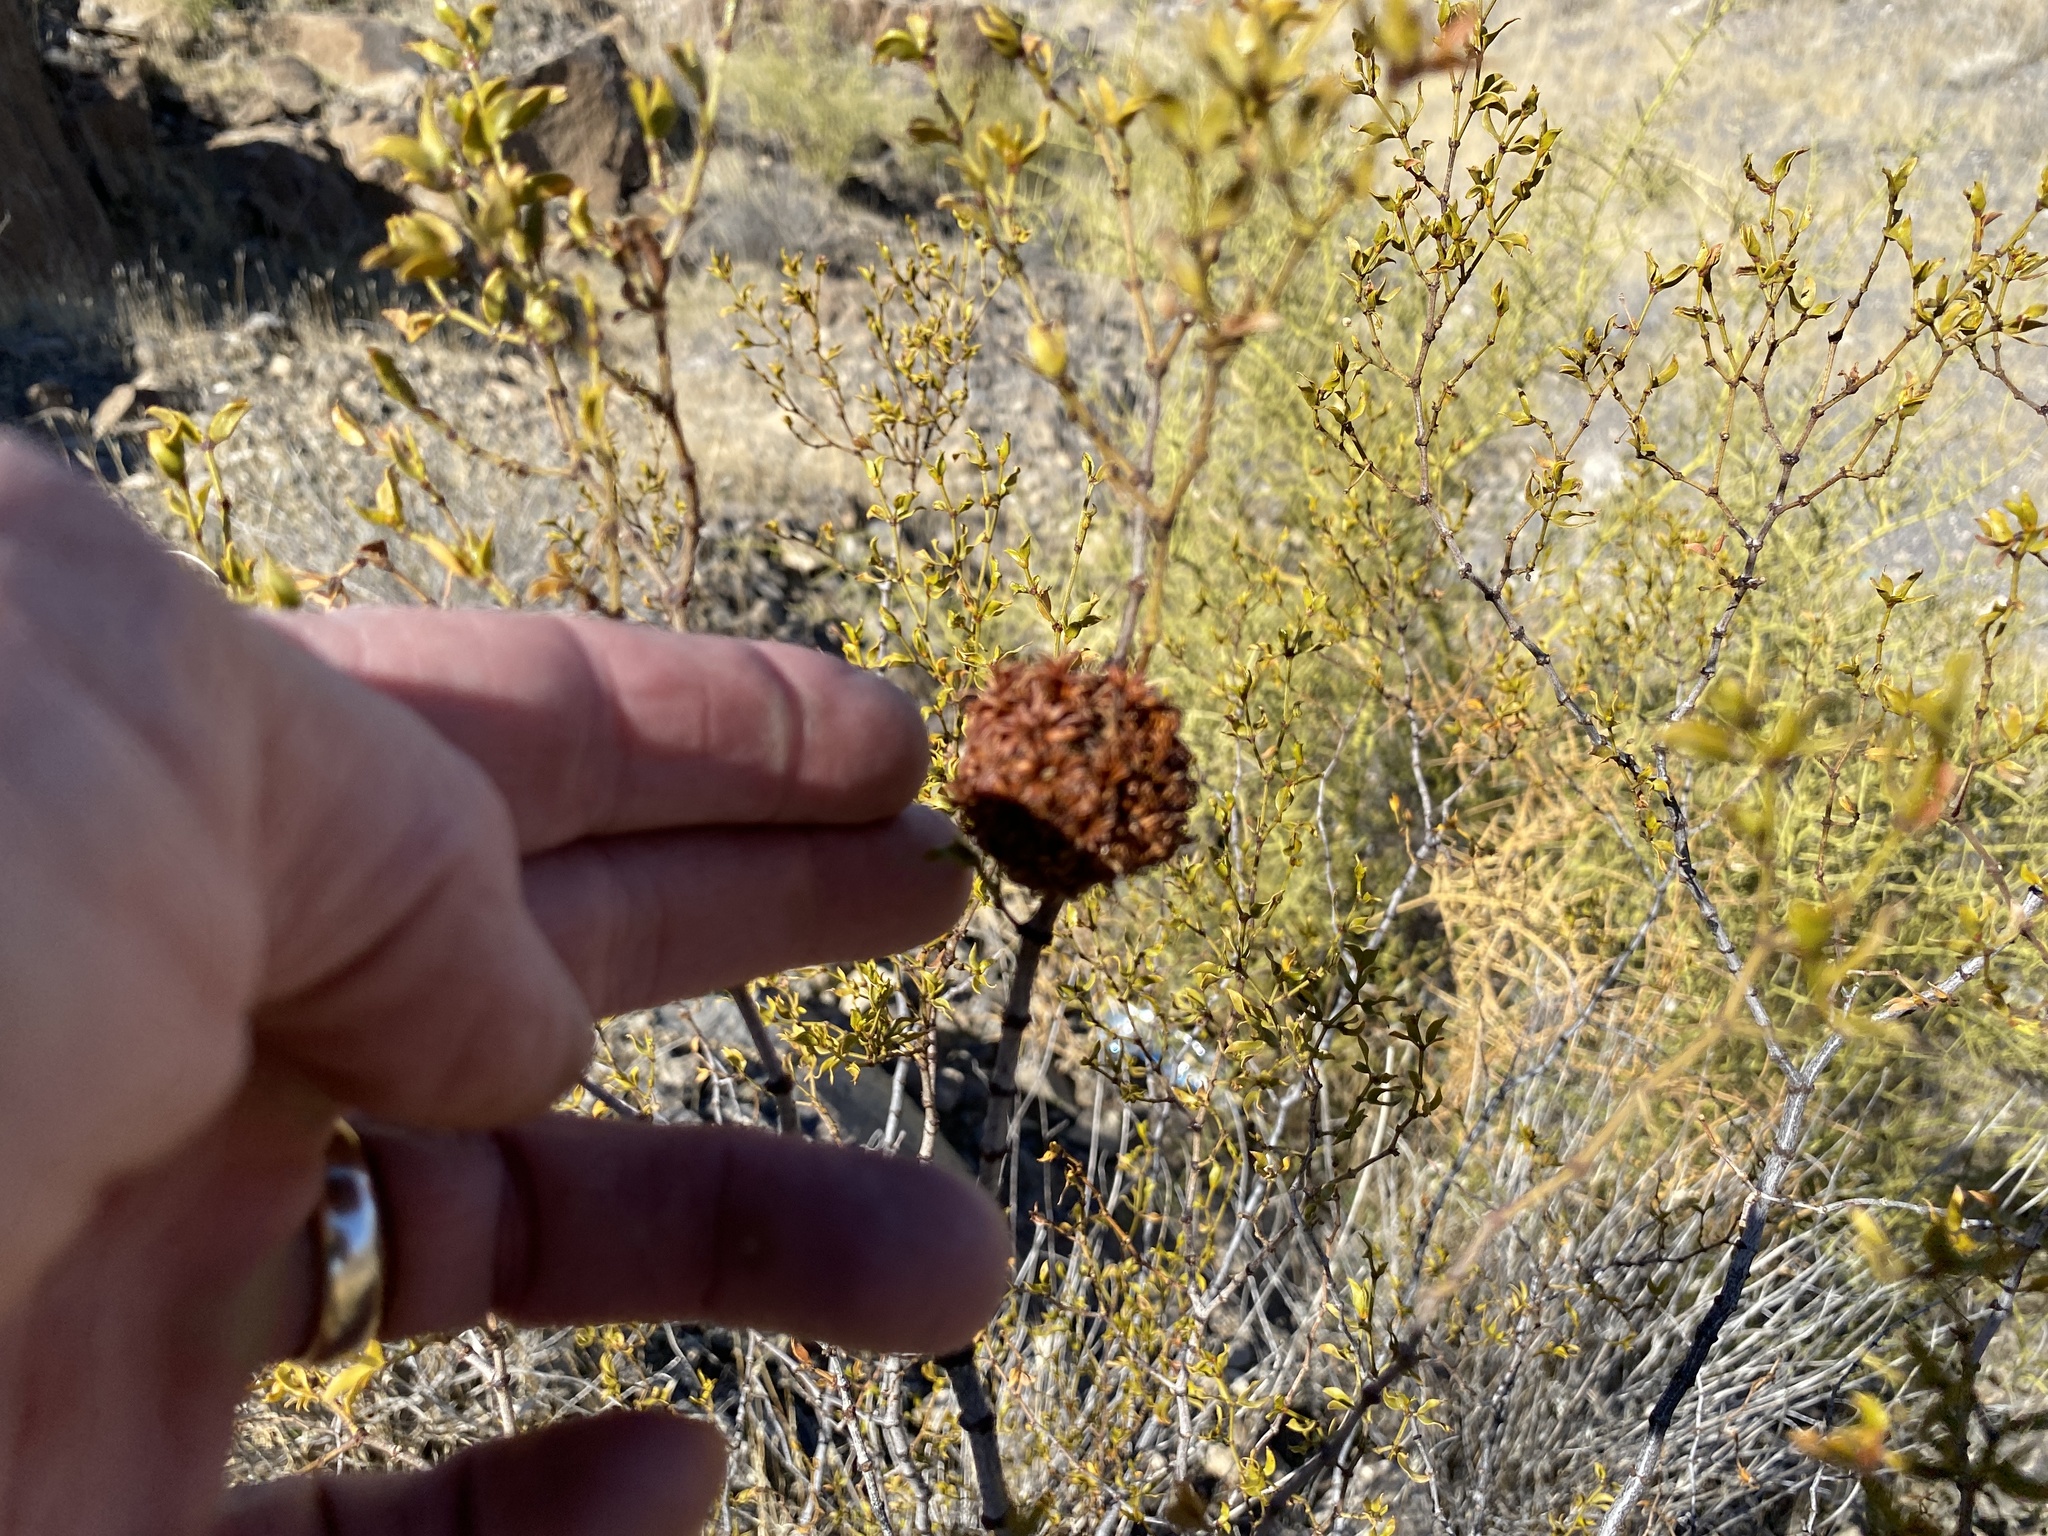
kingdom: Animalia
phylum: Arthropoda
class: Insecta
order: Diptera
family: Cecidomyiidae
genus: Asphondylia
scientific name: Asphondylia auripila
